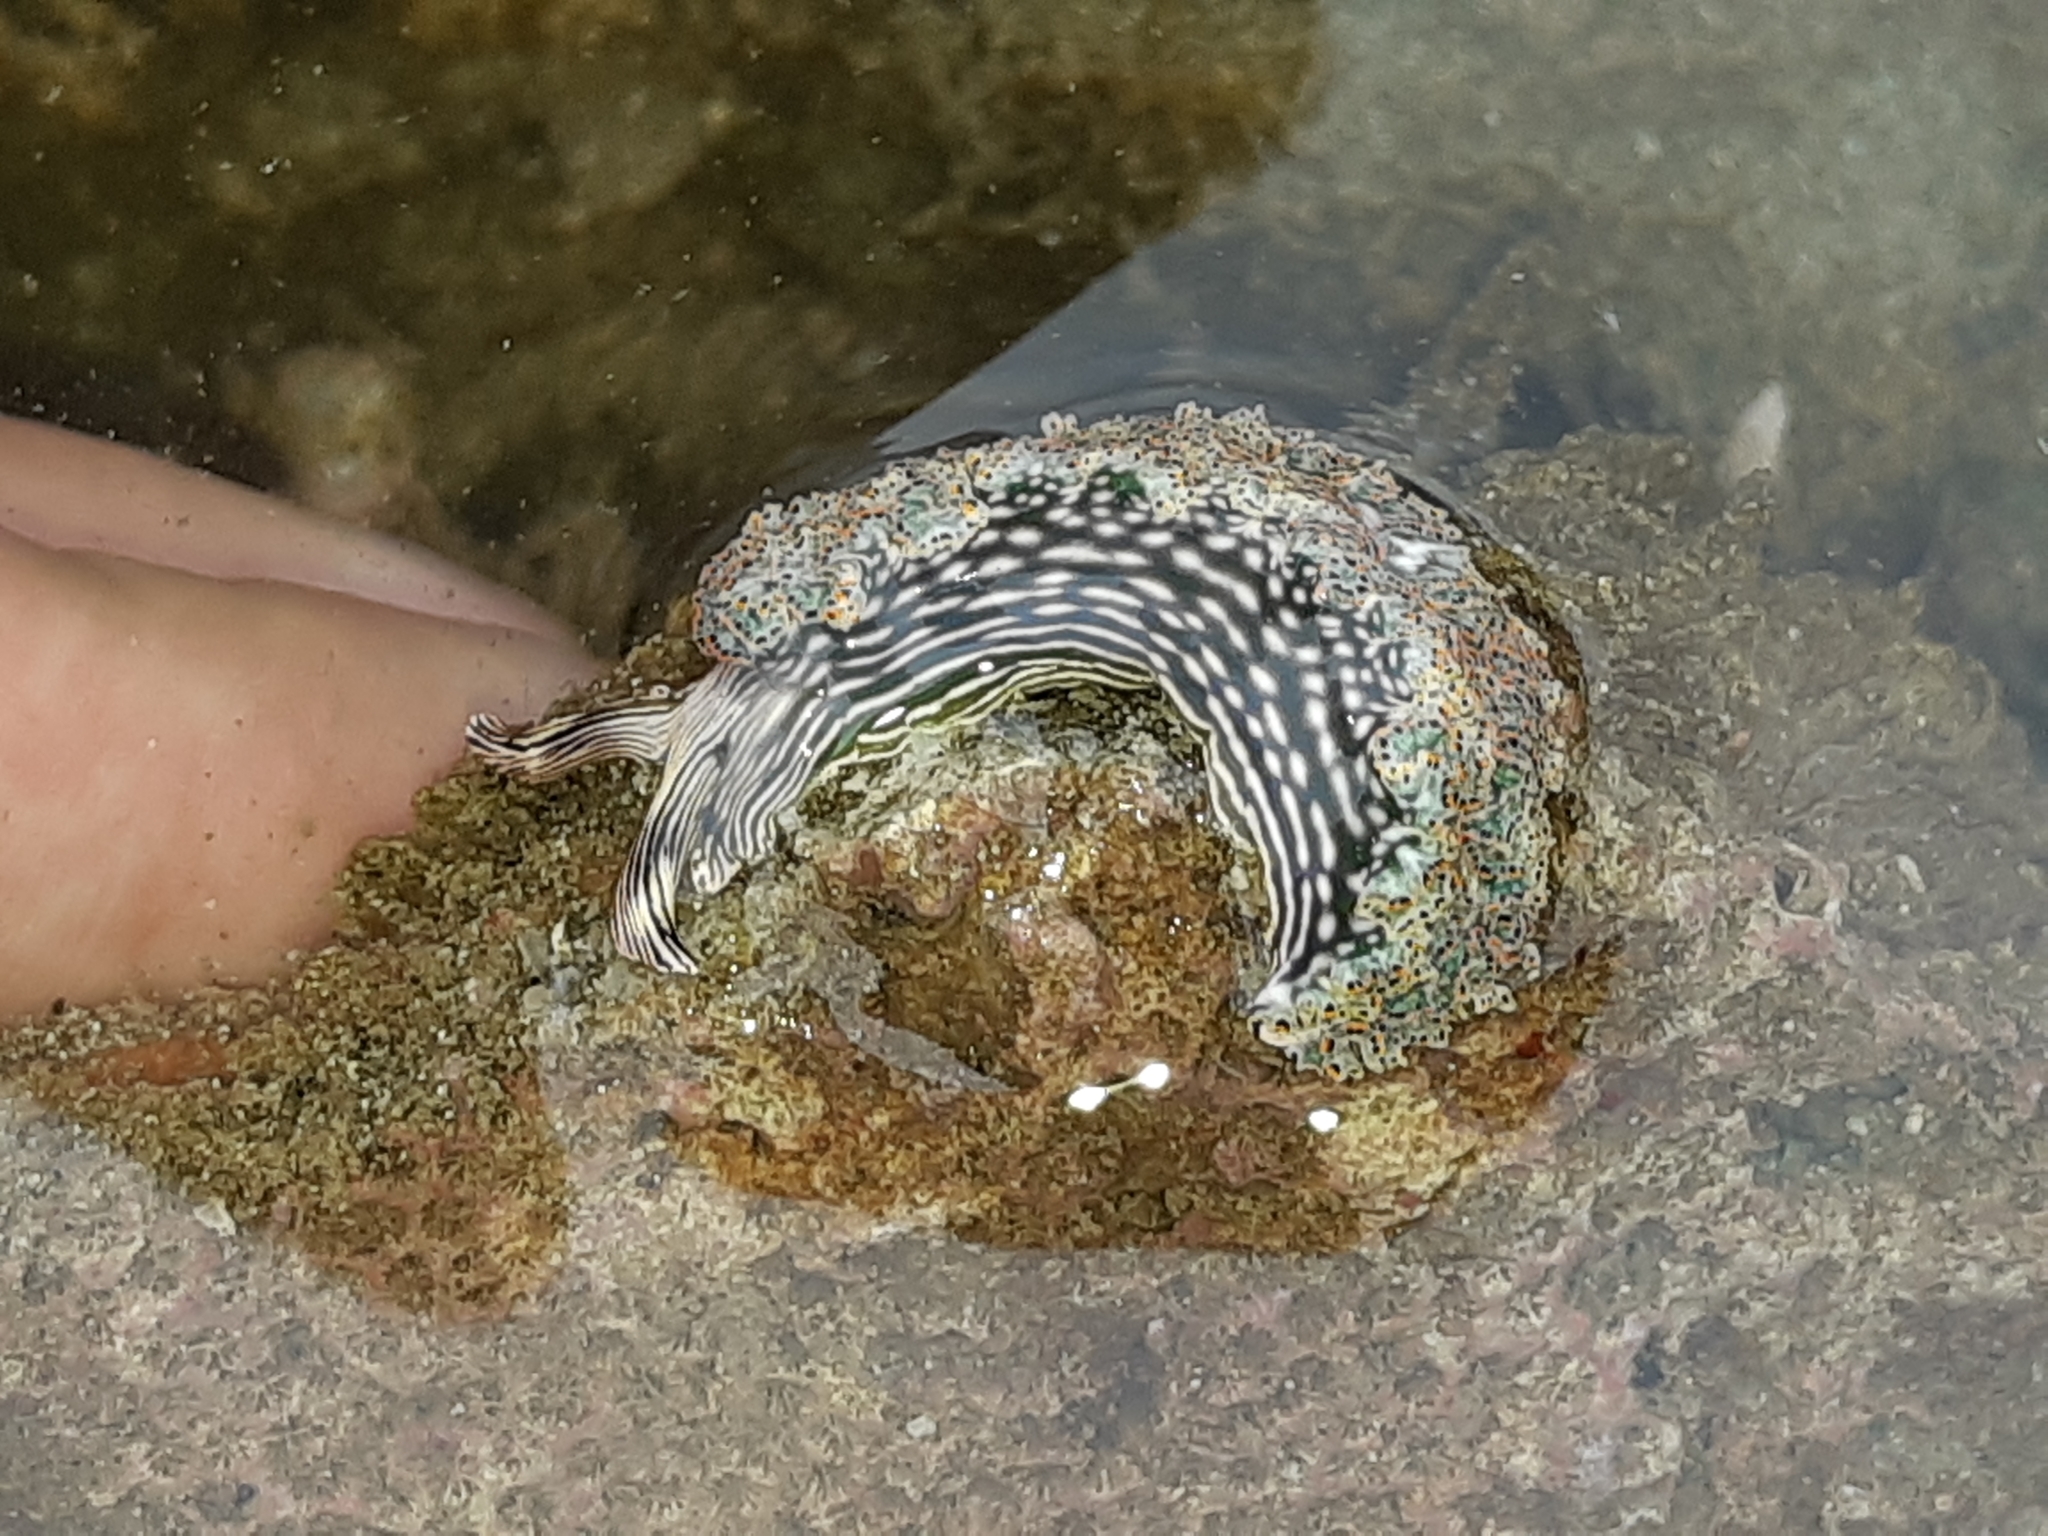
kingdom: Animalia
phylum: Mollusca
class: Gastropoda
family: Plakobranchidae
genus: Elysia
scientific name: Elysia diomedea
